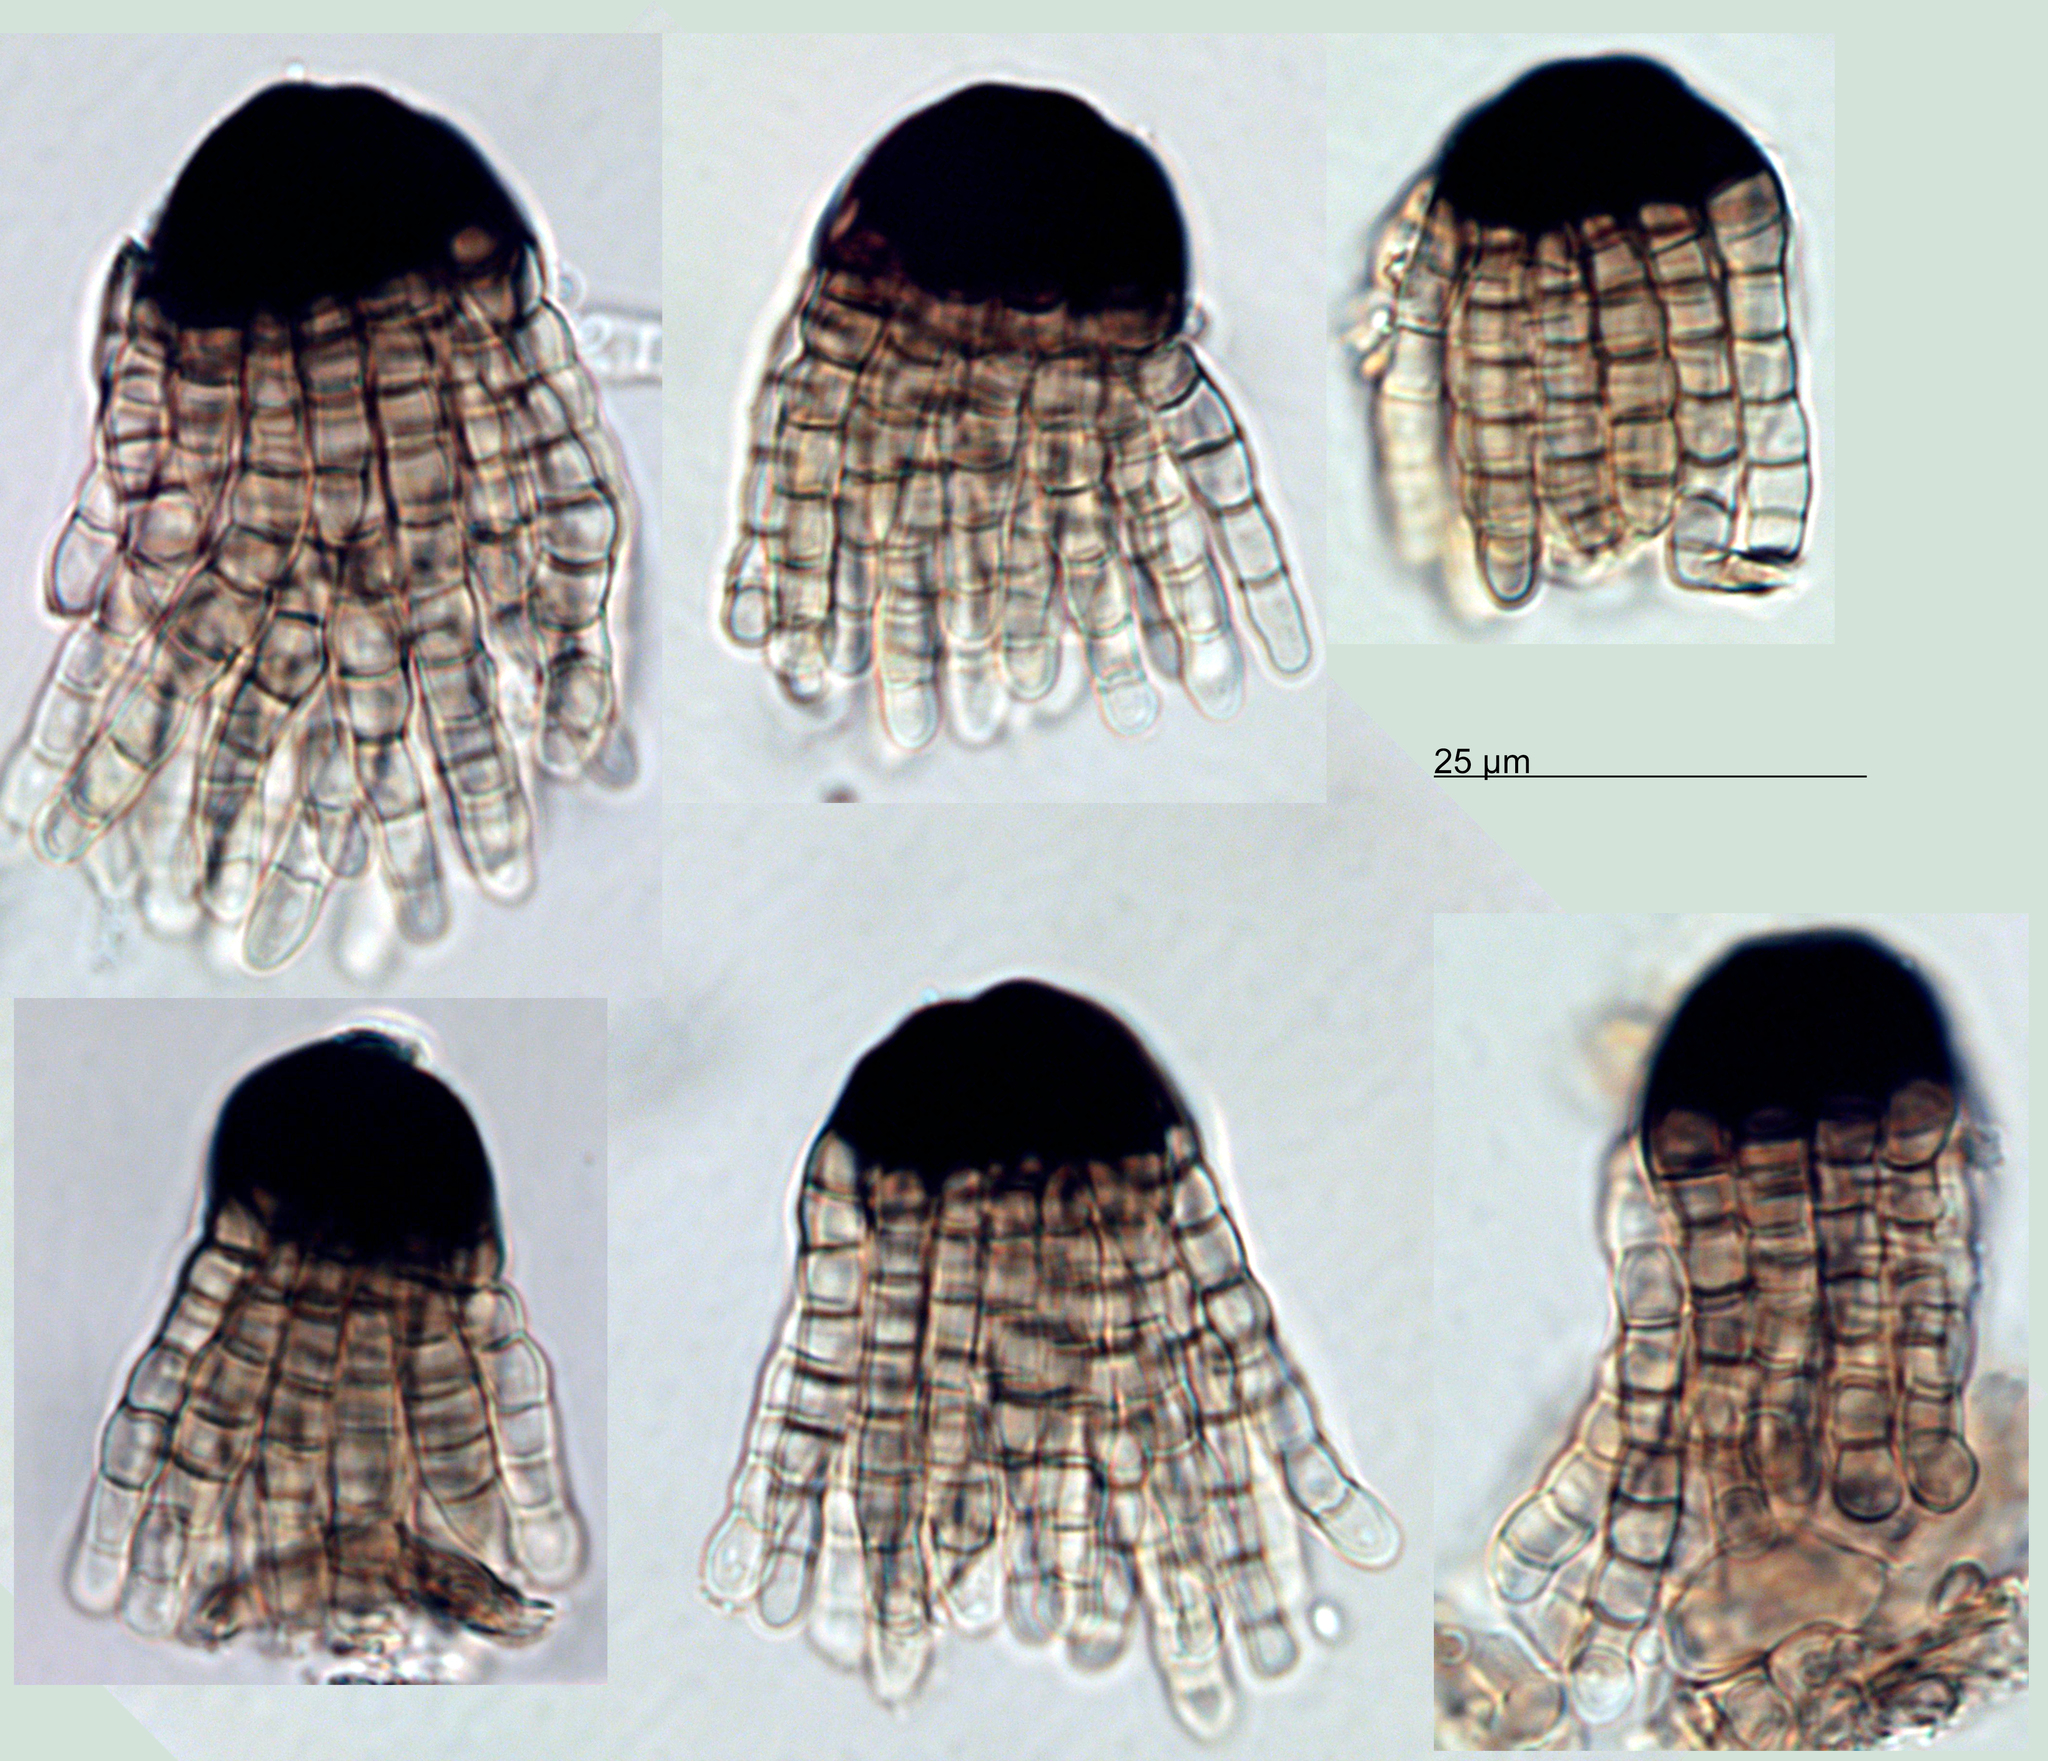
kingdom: Fungi
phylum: Ascomycota
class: Dothideomycetes
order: Pleosporales
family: Cryptocoryneaceae
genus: Cryptocoryneum
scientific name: Cryptocoryneum rilstonei
